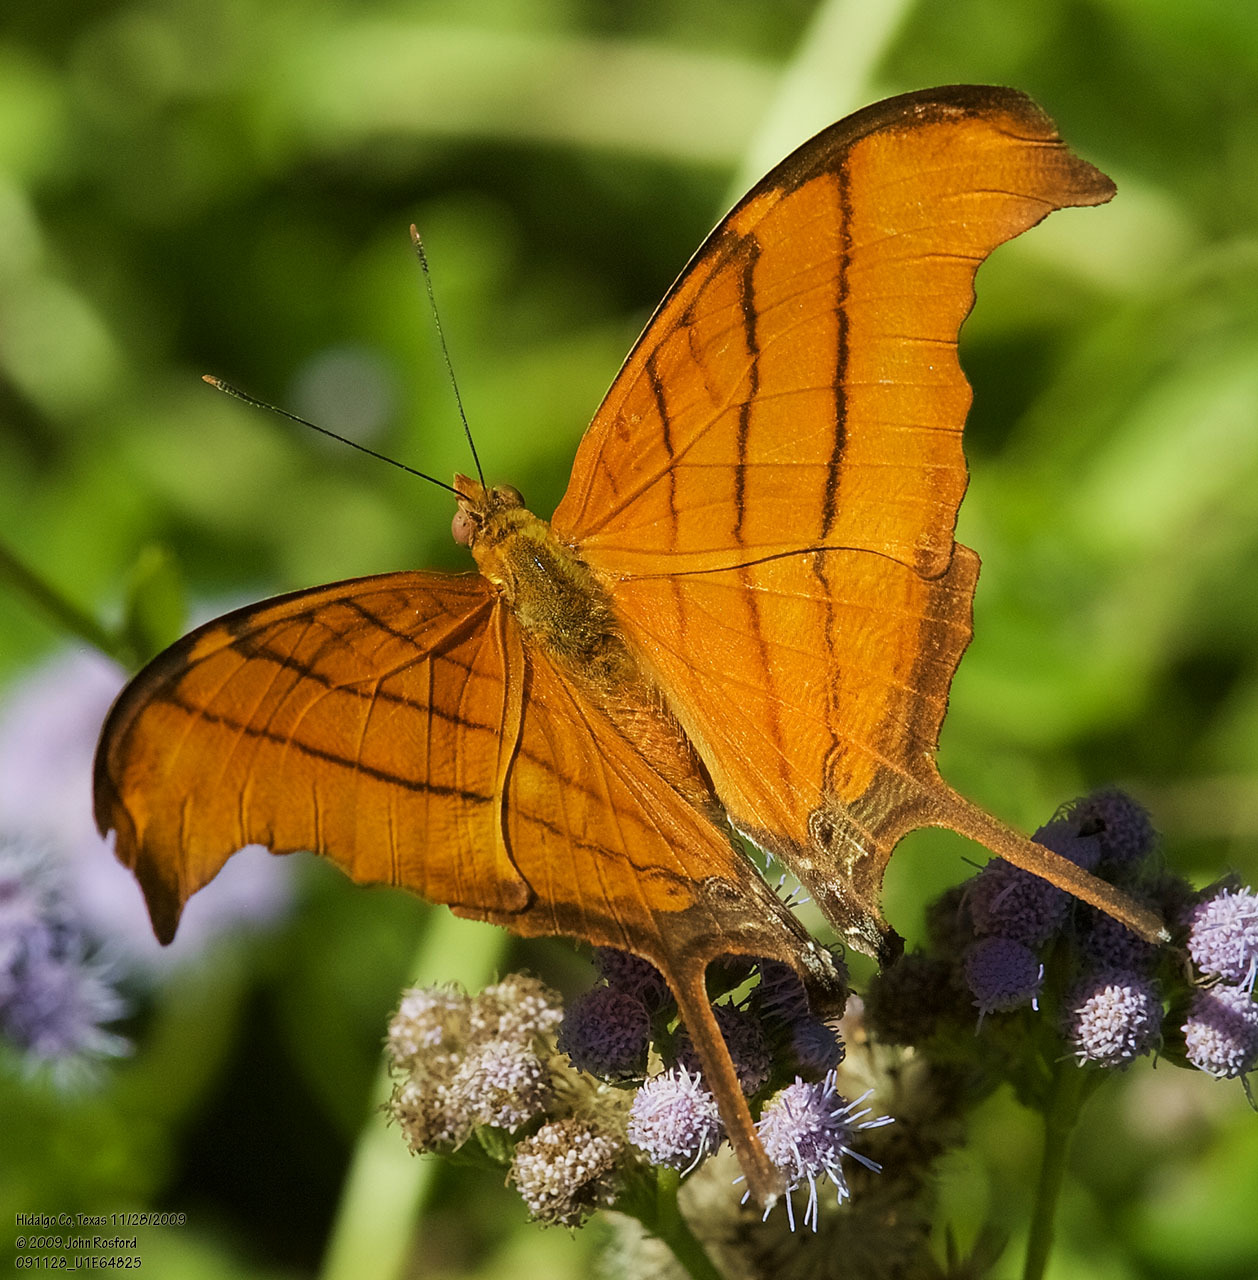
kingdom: Animalia
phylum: Arthropoda
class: Insecta
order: Lepidoptera
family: Nymphalidae
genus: Marpesia
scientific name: Marpesia petreus
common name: Red dagger wing
